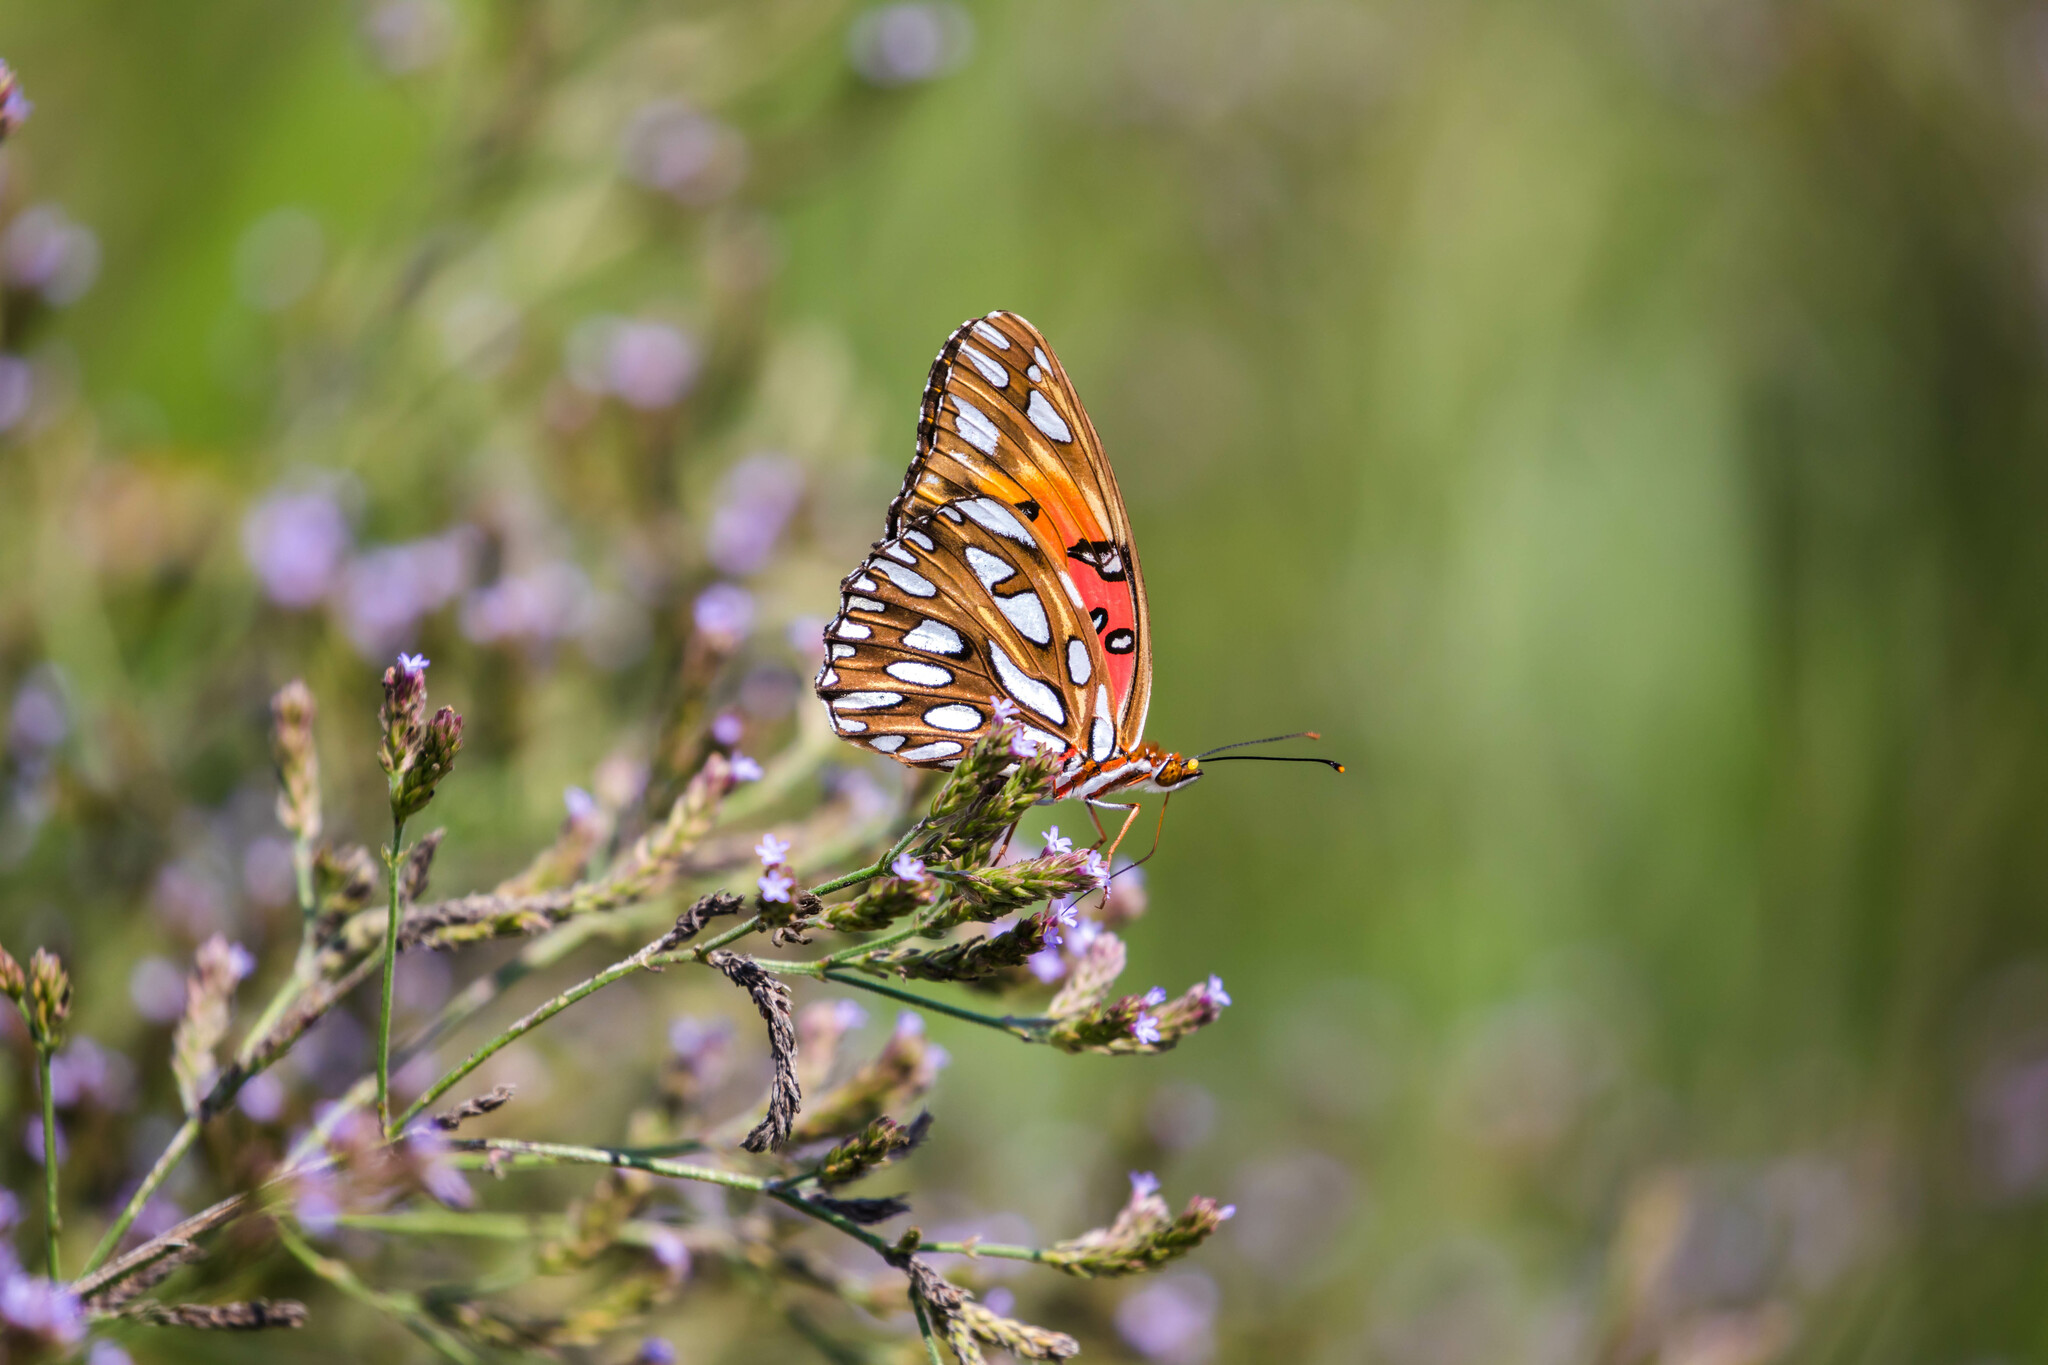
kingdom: Animalia
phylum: Arthropoda
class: Insecta
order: Lepidoptera
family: Nymphalidae
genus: Dione
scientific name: Dione vanillae
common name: Gulf fritillary
